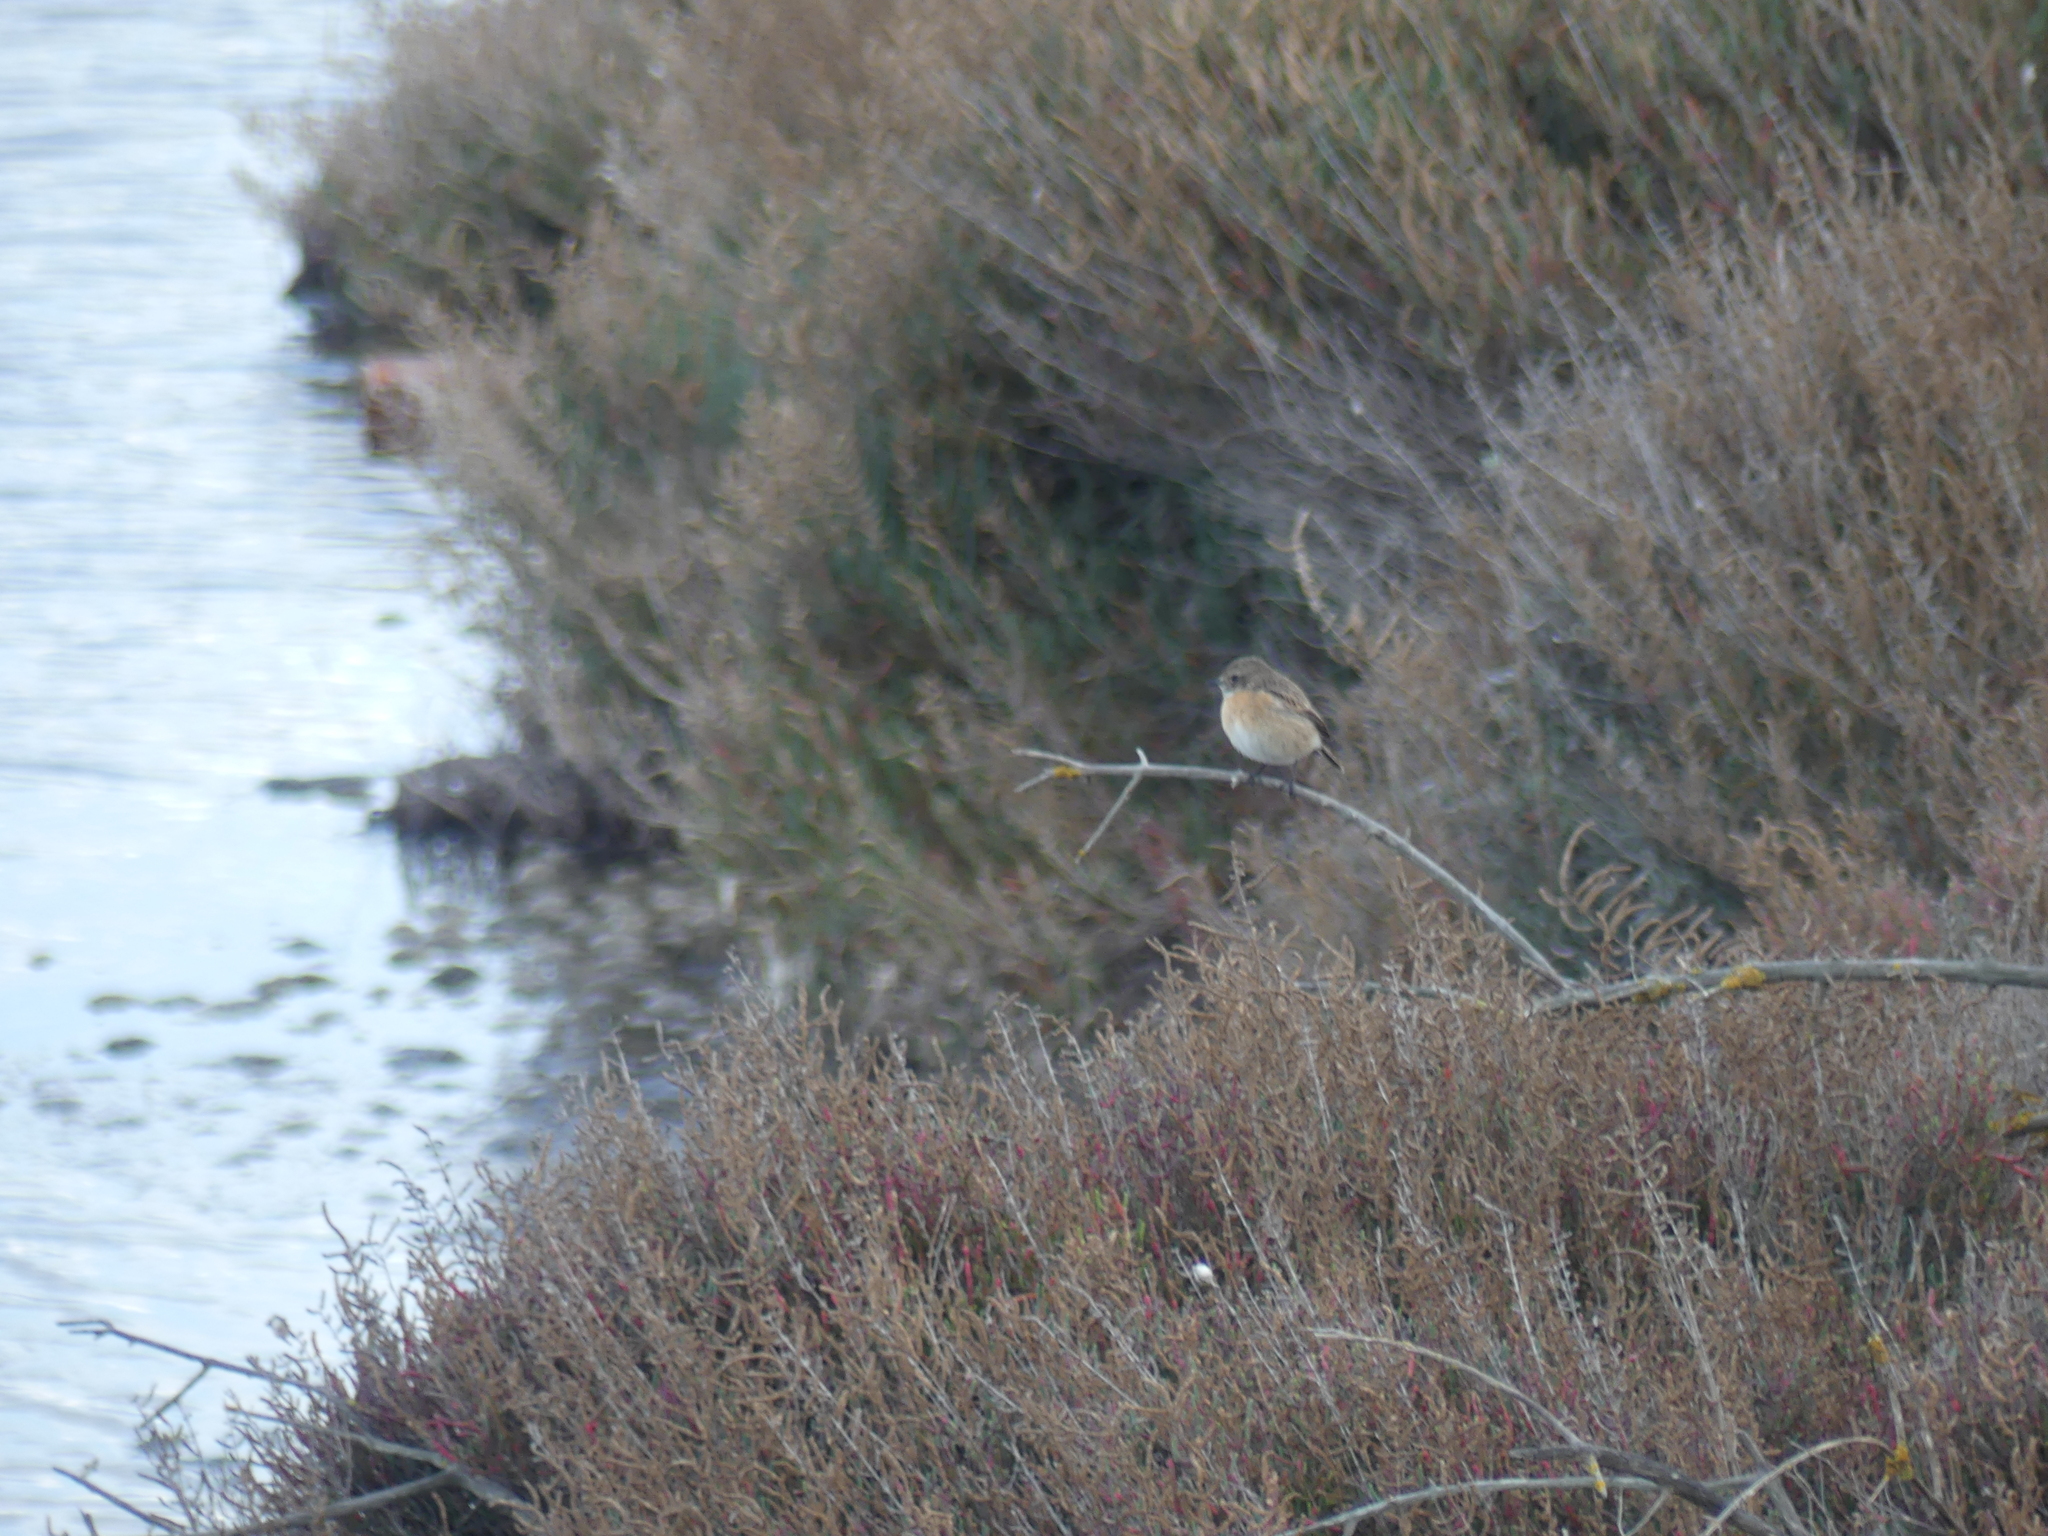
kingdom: Animalia
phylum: Chordata
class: Aves
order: Passeriformes
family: Muscicapidae
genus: Saxicola
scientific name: Saxicola rubicola
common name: European stonechat
